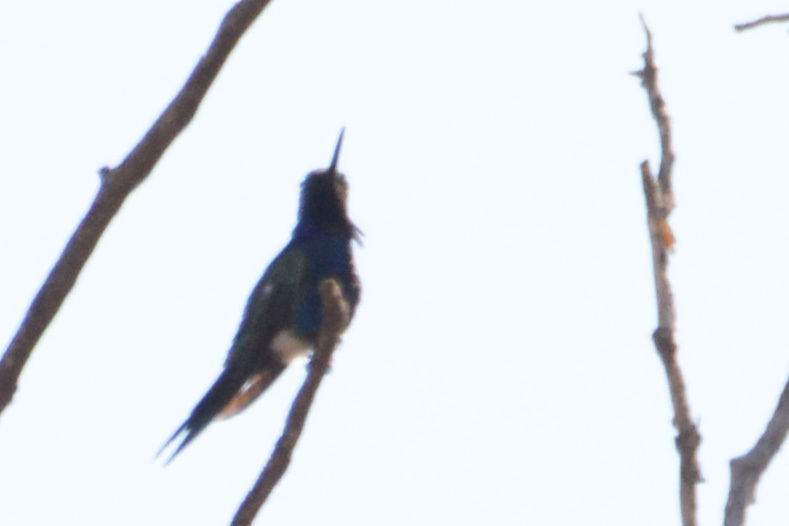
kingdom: Animalia
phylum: Chordata
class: Aves
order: Apodiformes
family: Trochilidae
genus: Heliomaster
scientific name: Heliomaster furcifer
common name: Blue-tufted starthroat
